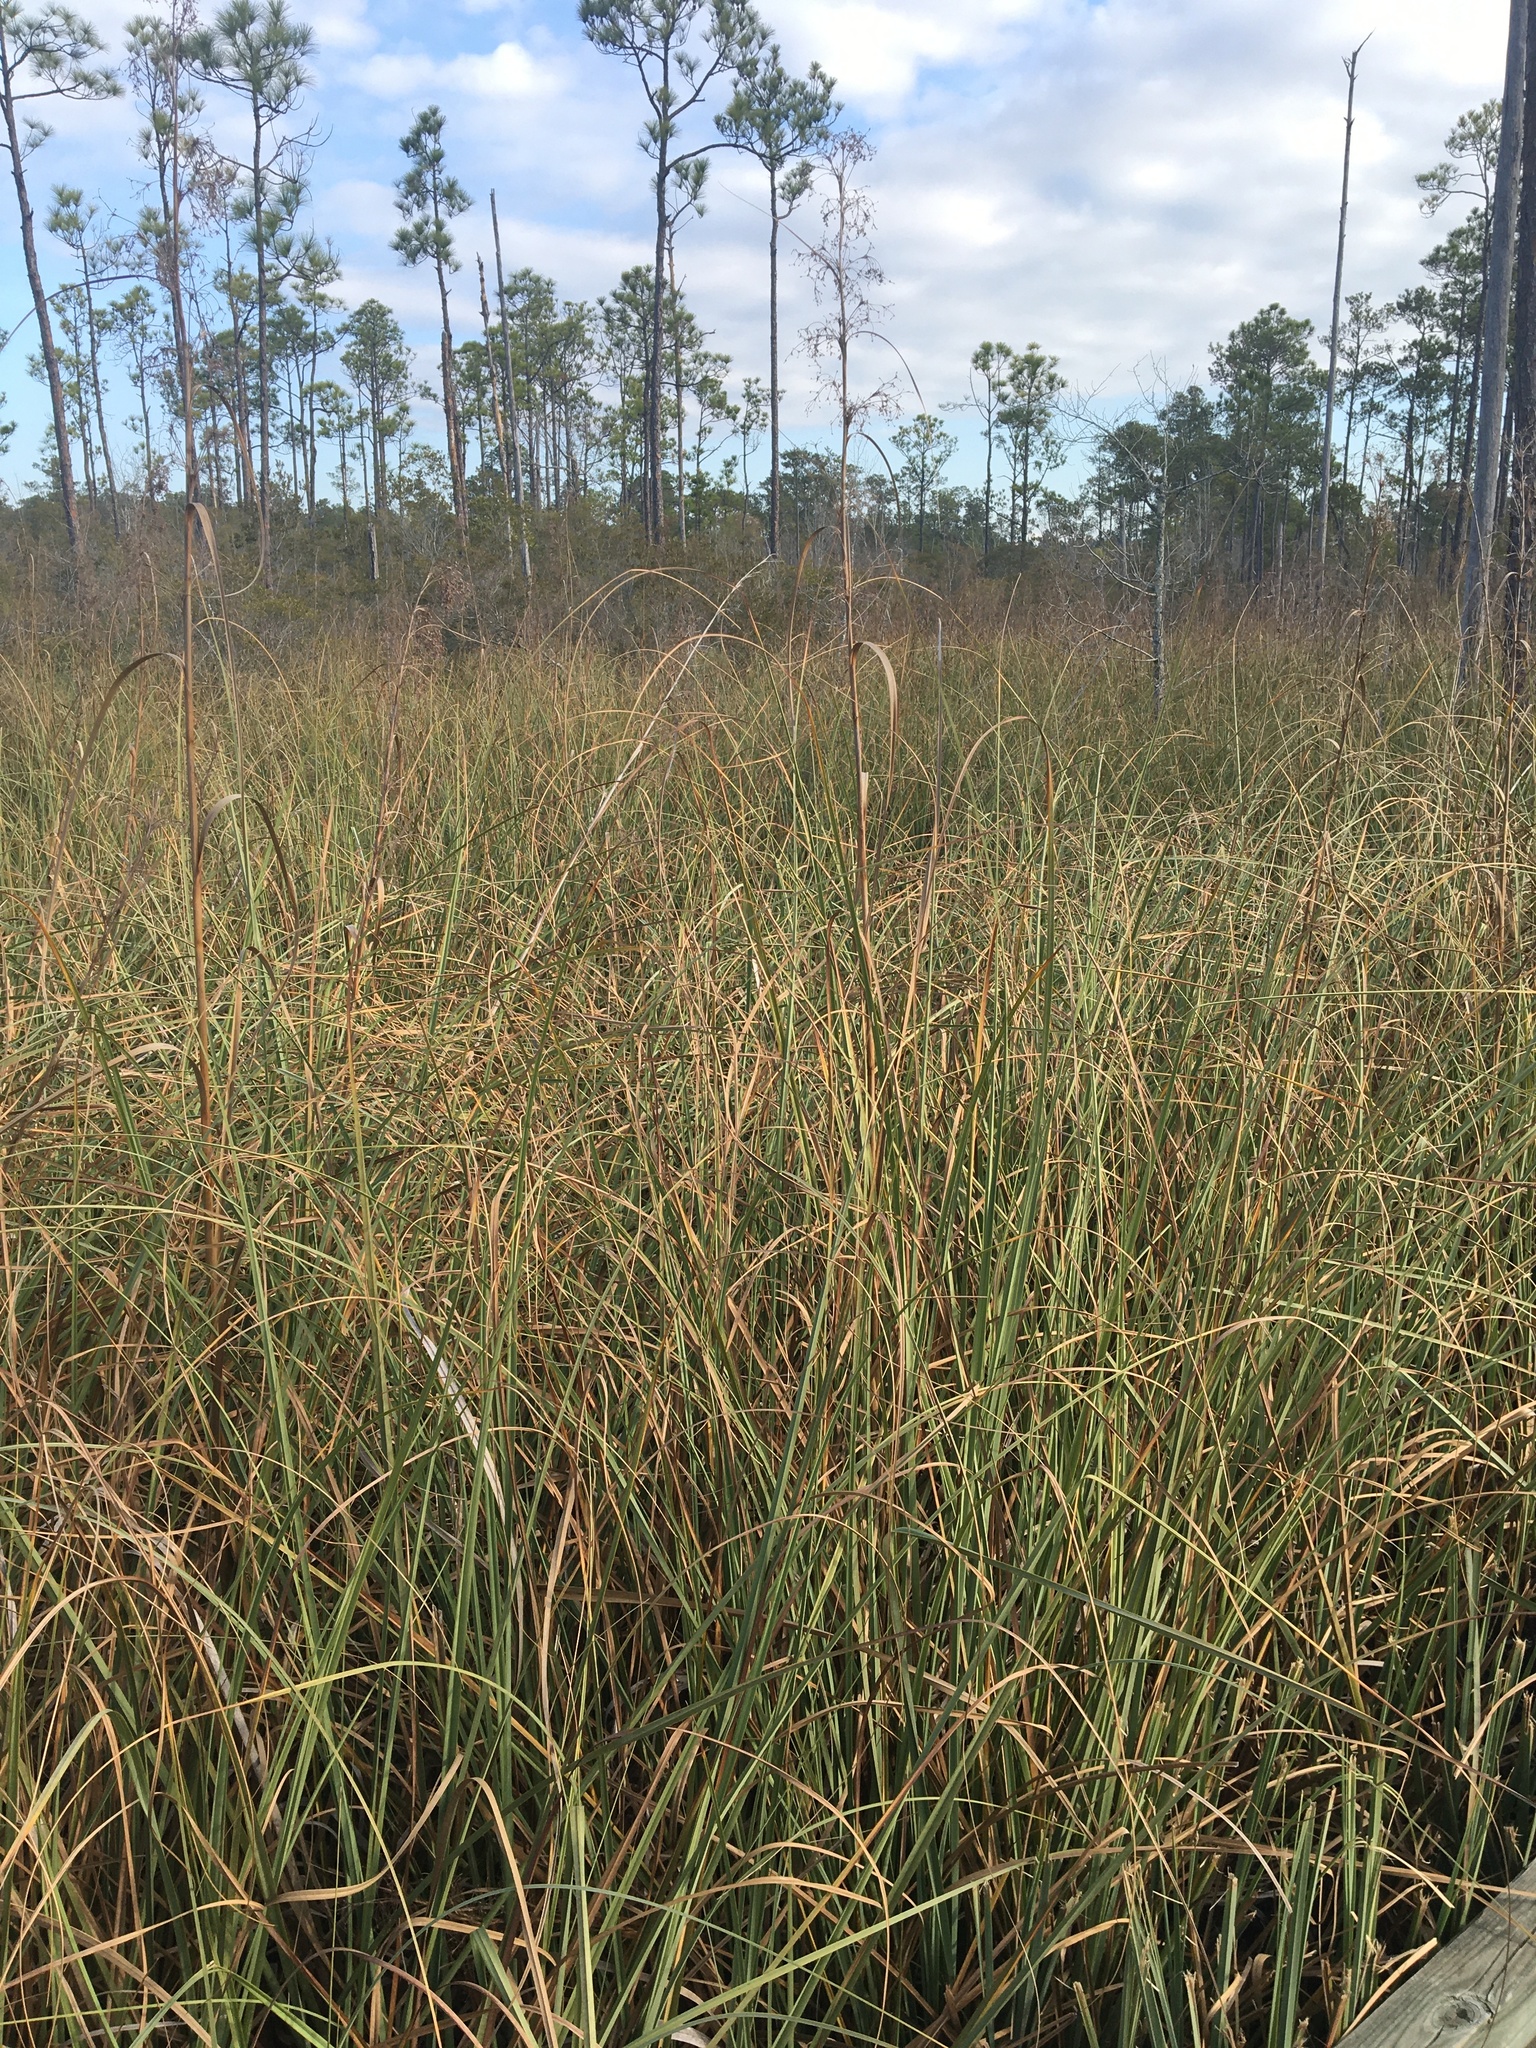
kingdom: Plantae
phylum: Tracheophyta
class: Liliopsida
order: Poales
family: Cyperaceae
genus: Cladium
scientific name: Cladium mariscus
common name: Great fen-sedge
